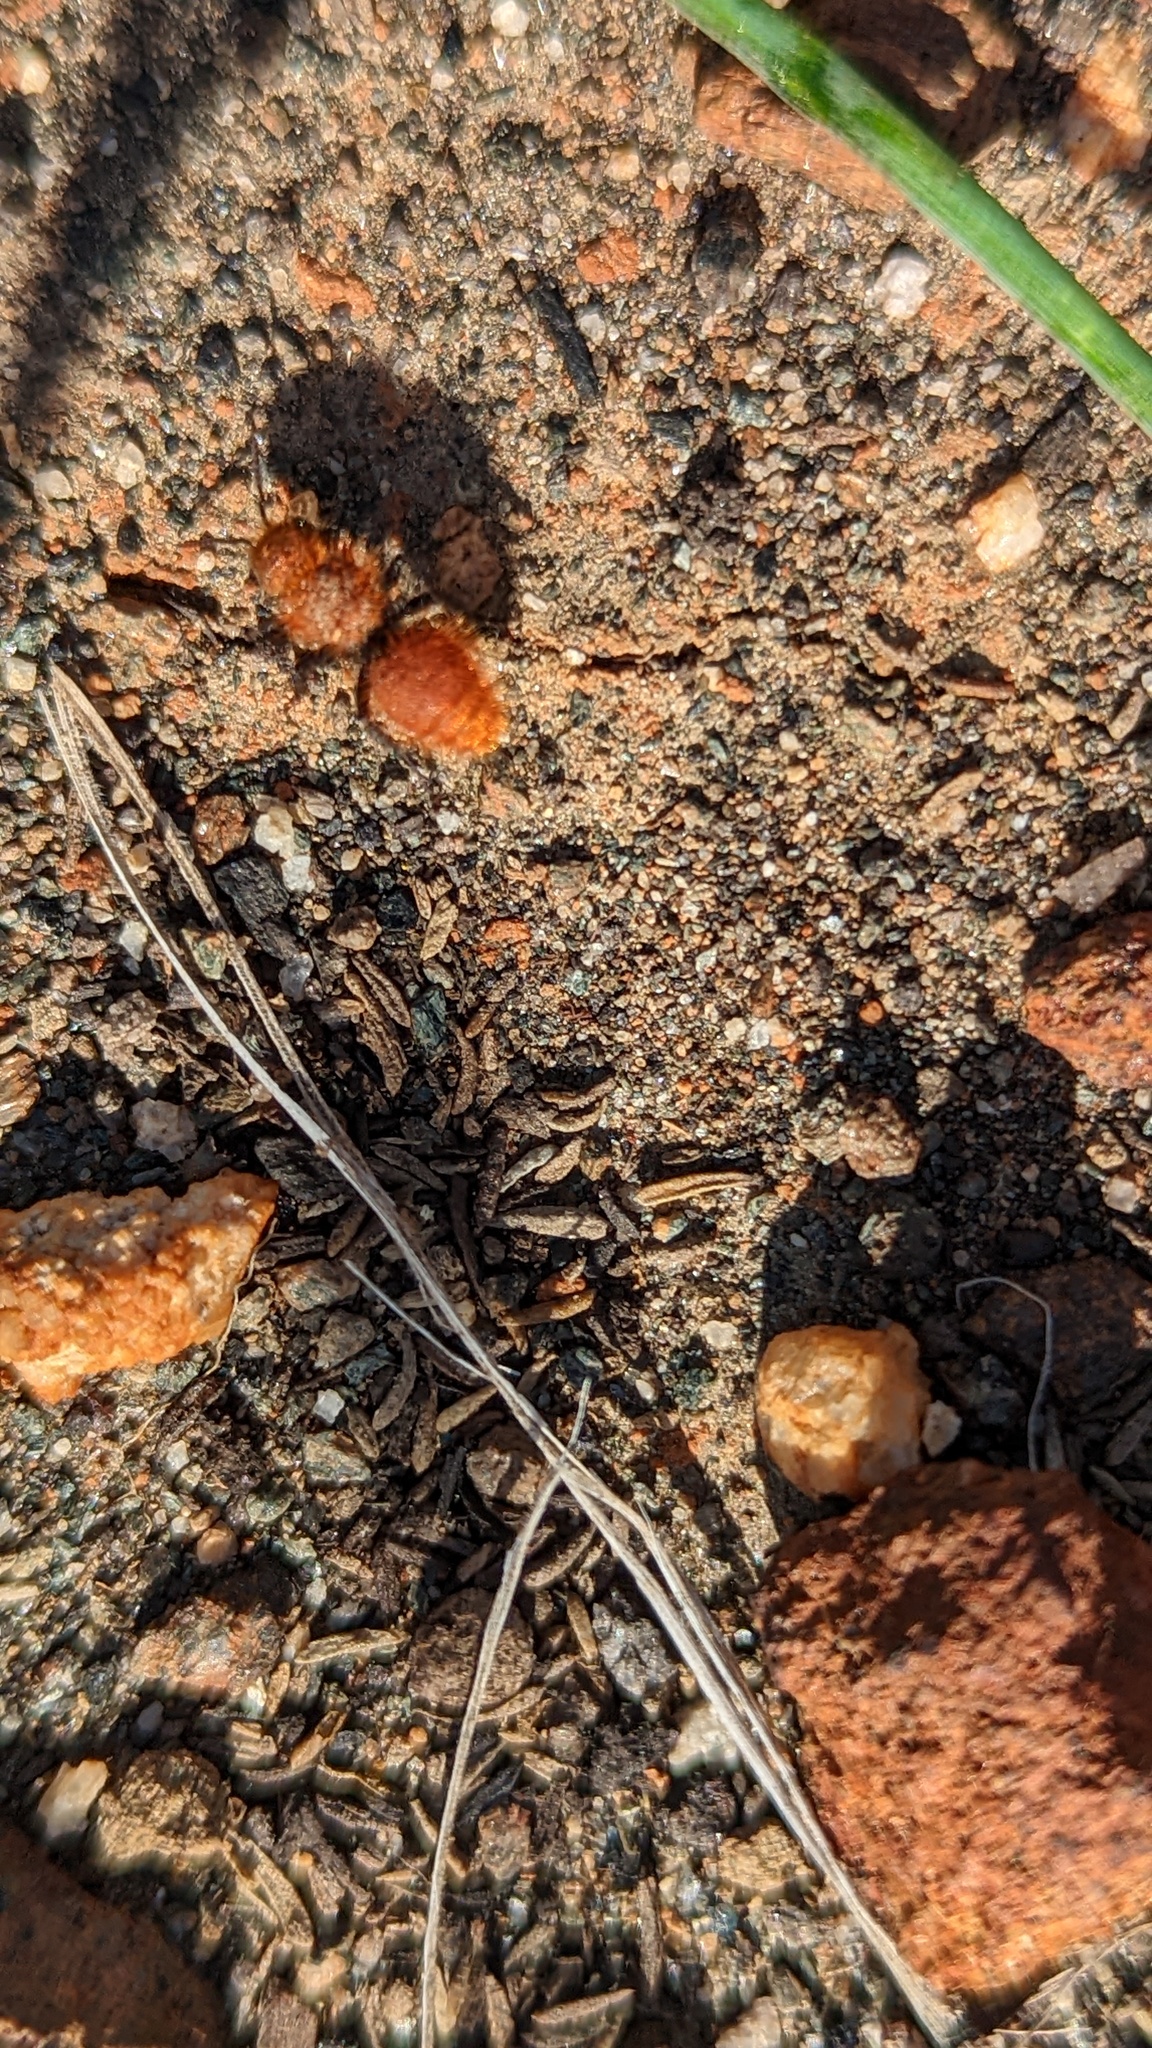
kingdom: Animalia
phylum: Arthropoda
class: Insecta
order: Hymenoptera
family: Mutillidae
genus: Dasymutilla
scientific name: Dasymutilla
